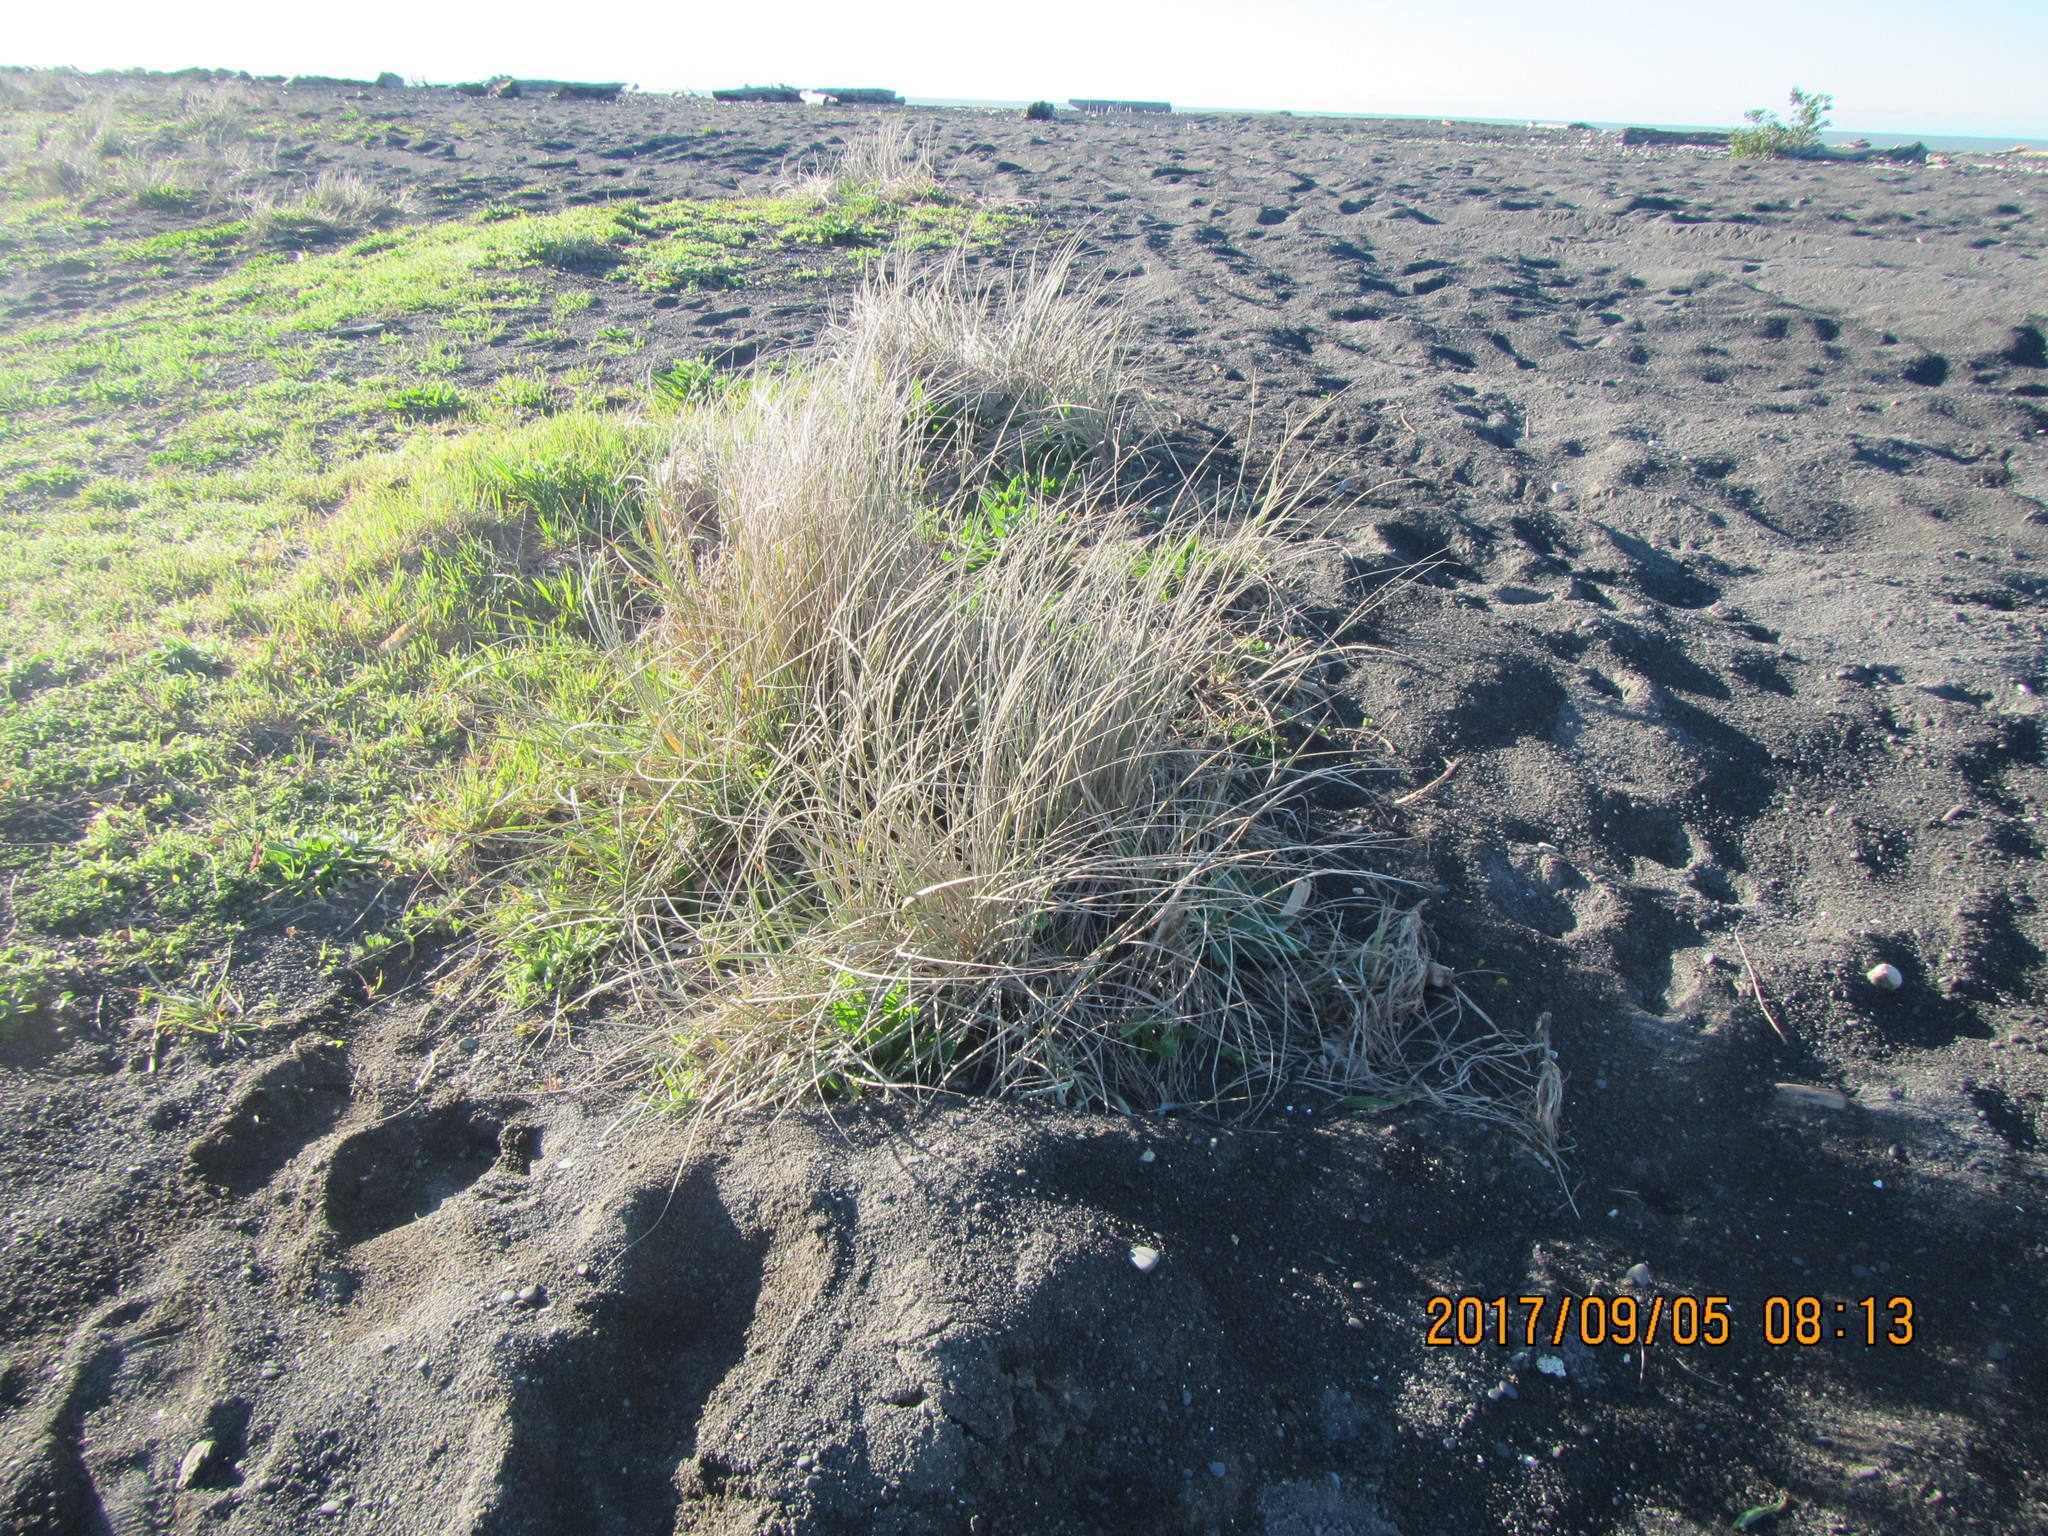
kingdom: Plantae
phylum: Tracheophyta
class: Liliopsida
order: Poales
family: Poaceae
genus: Spinifex
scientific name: Spinifex sericeus
